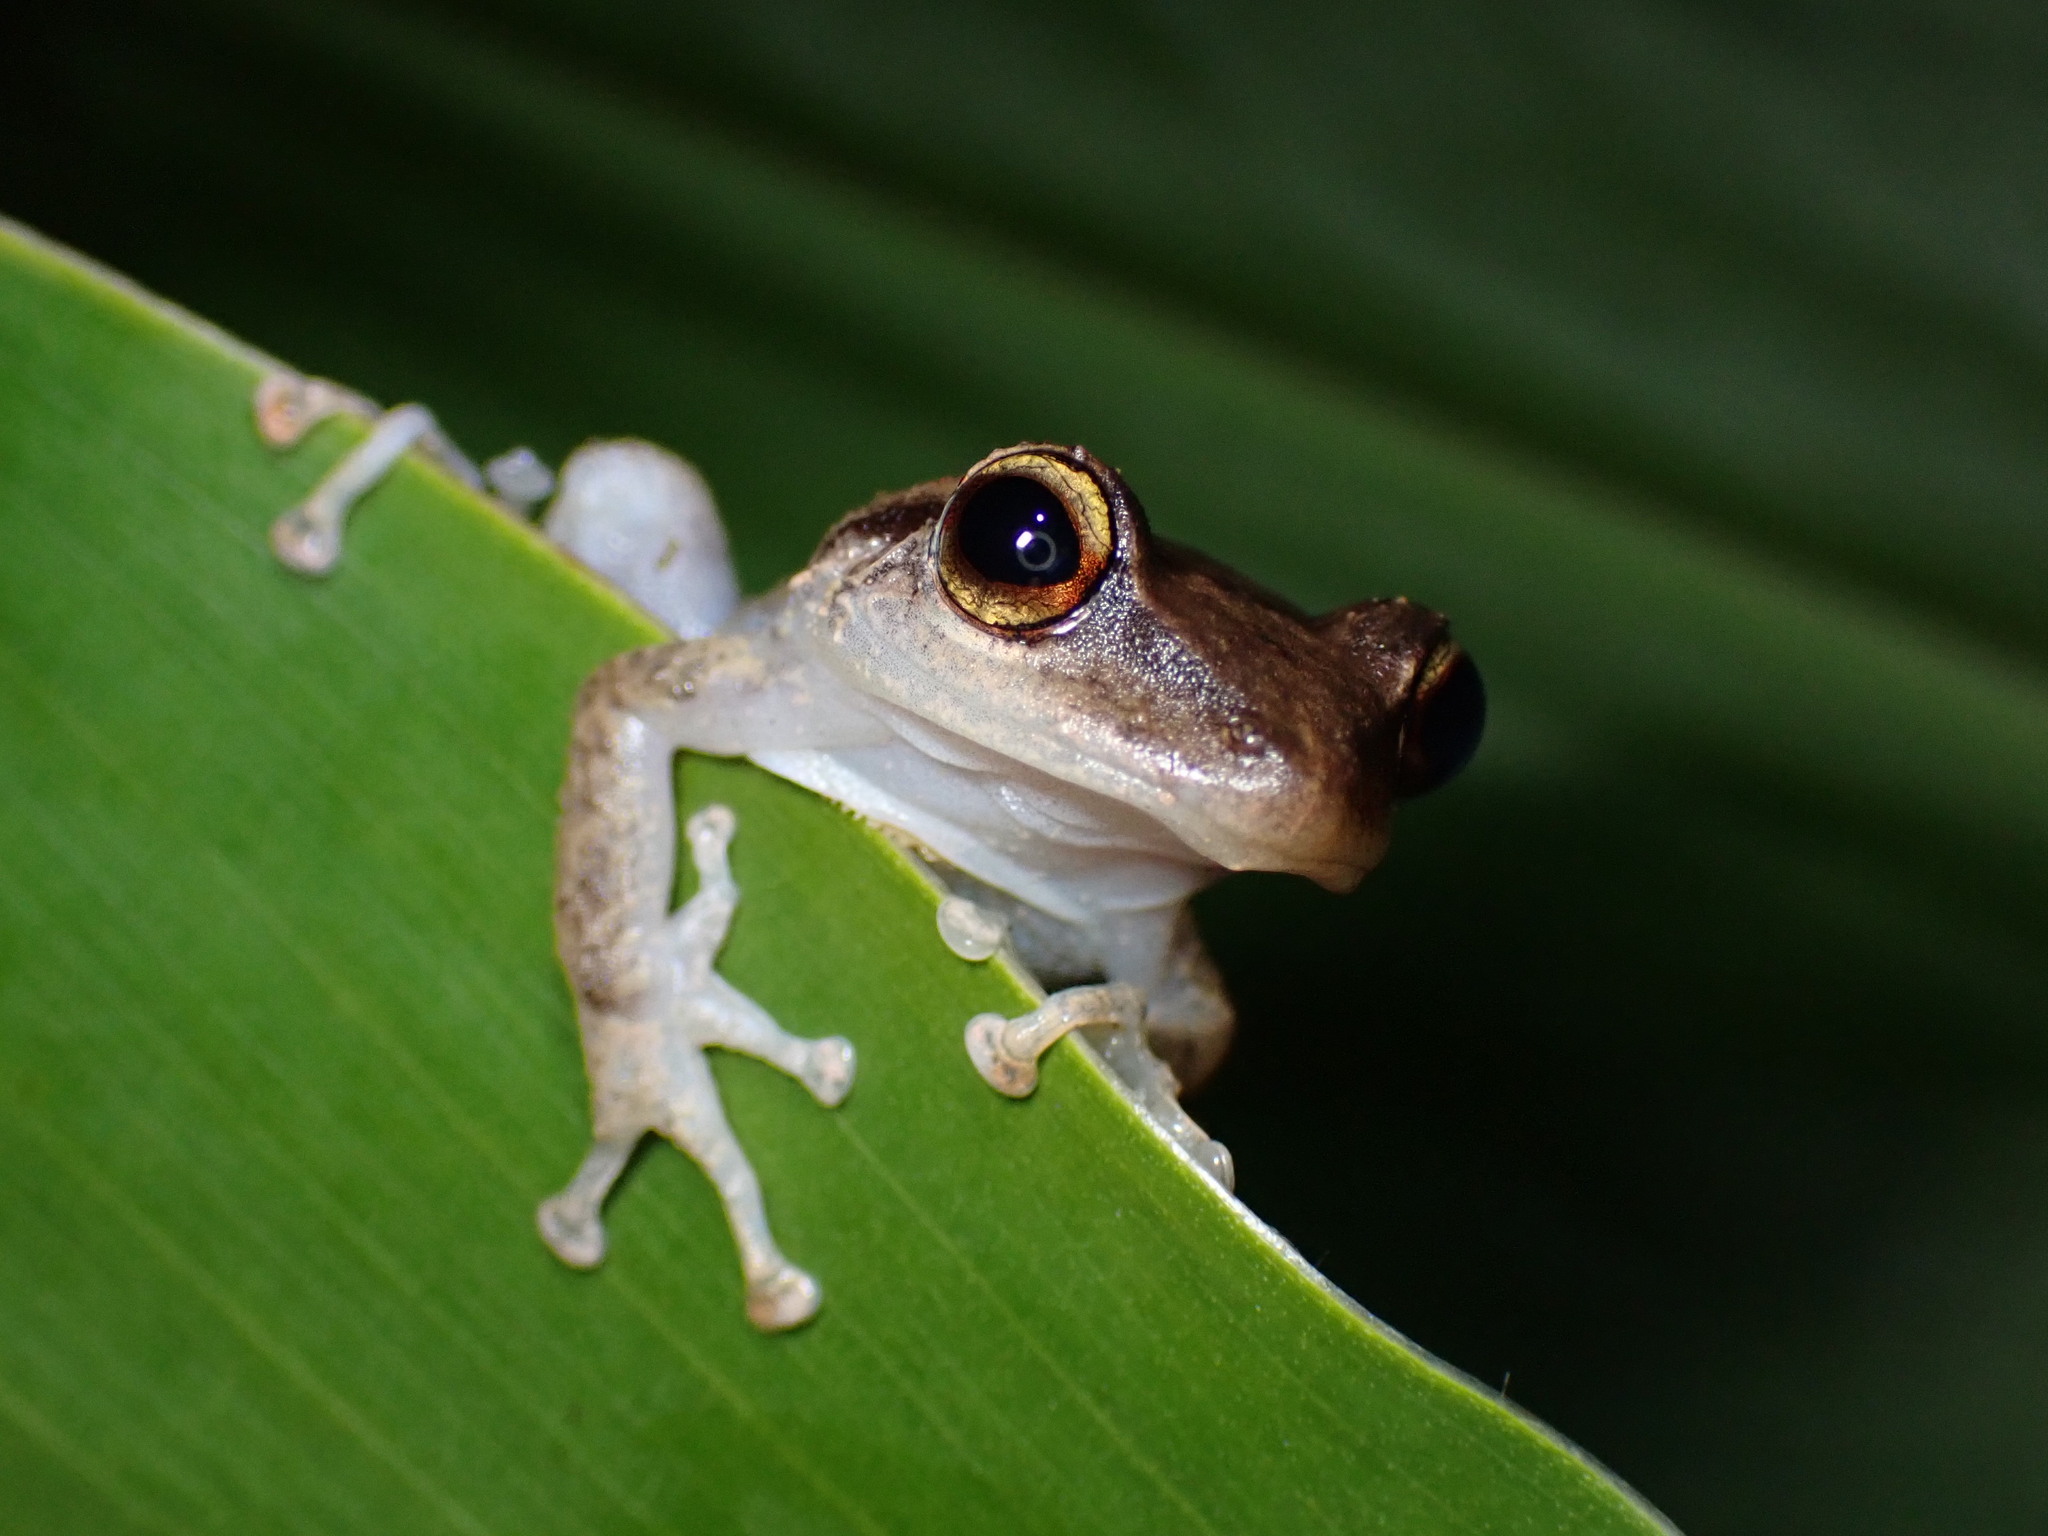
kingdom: Animalia
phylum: Chordata
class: Amphibia
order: Anura
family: Eleutherodactylidae
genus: Eleutherodactylus
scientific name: Eleutherodactylus coqui
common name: Coqui frog
